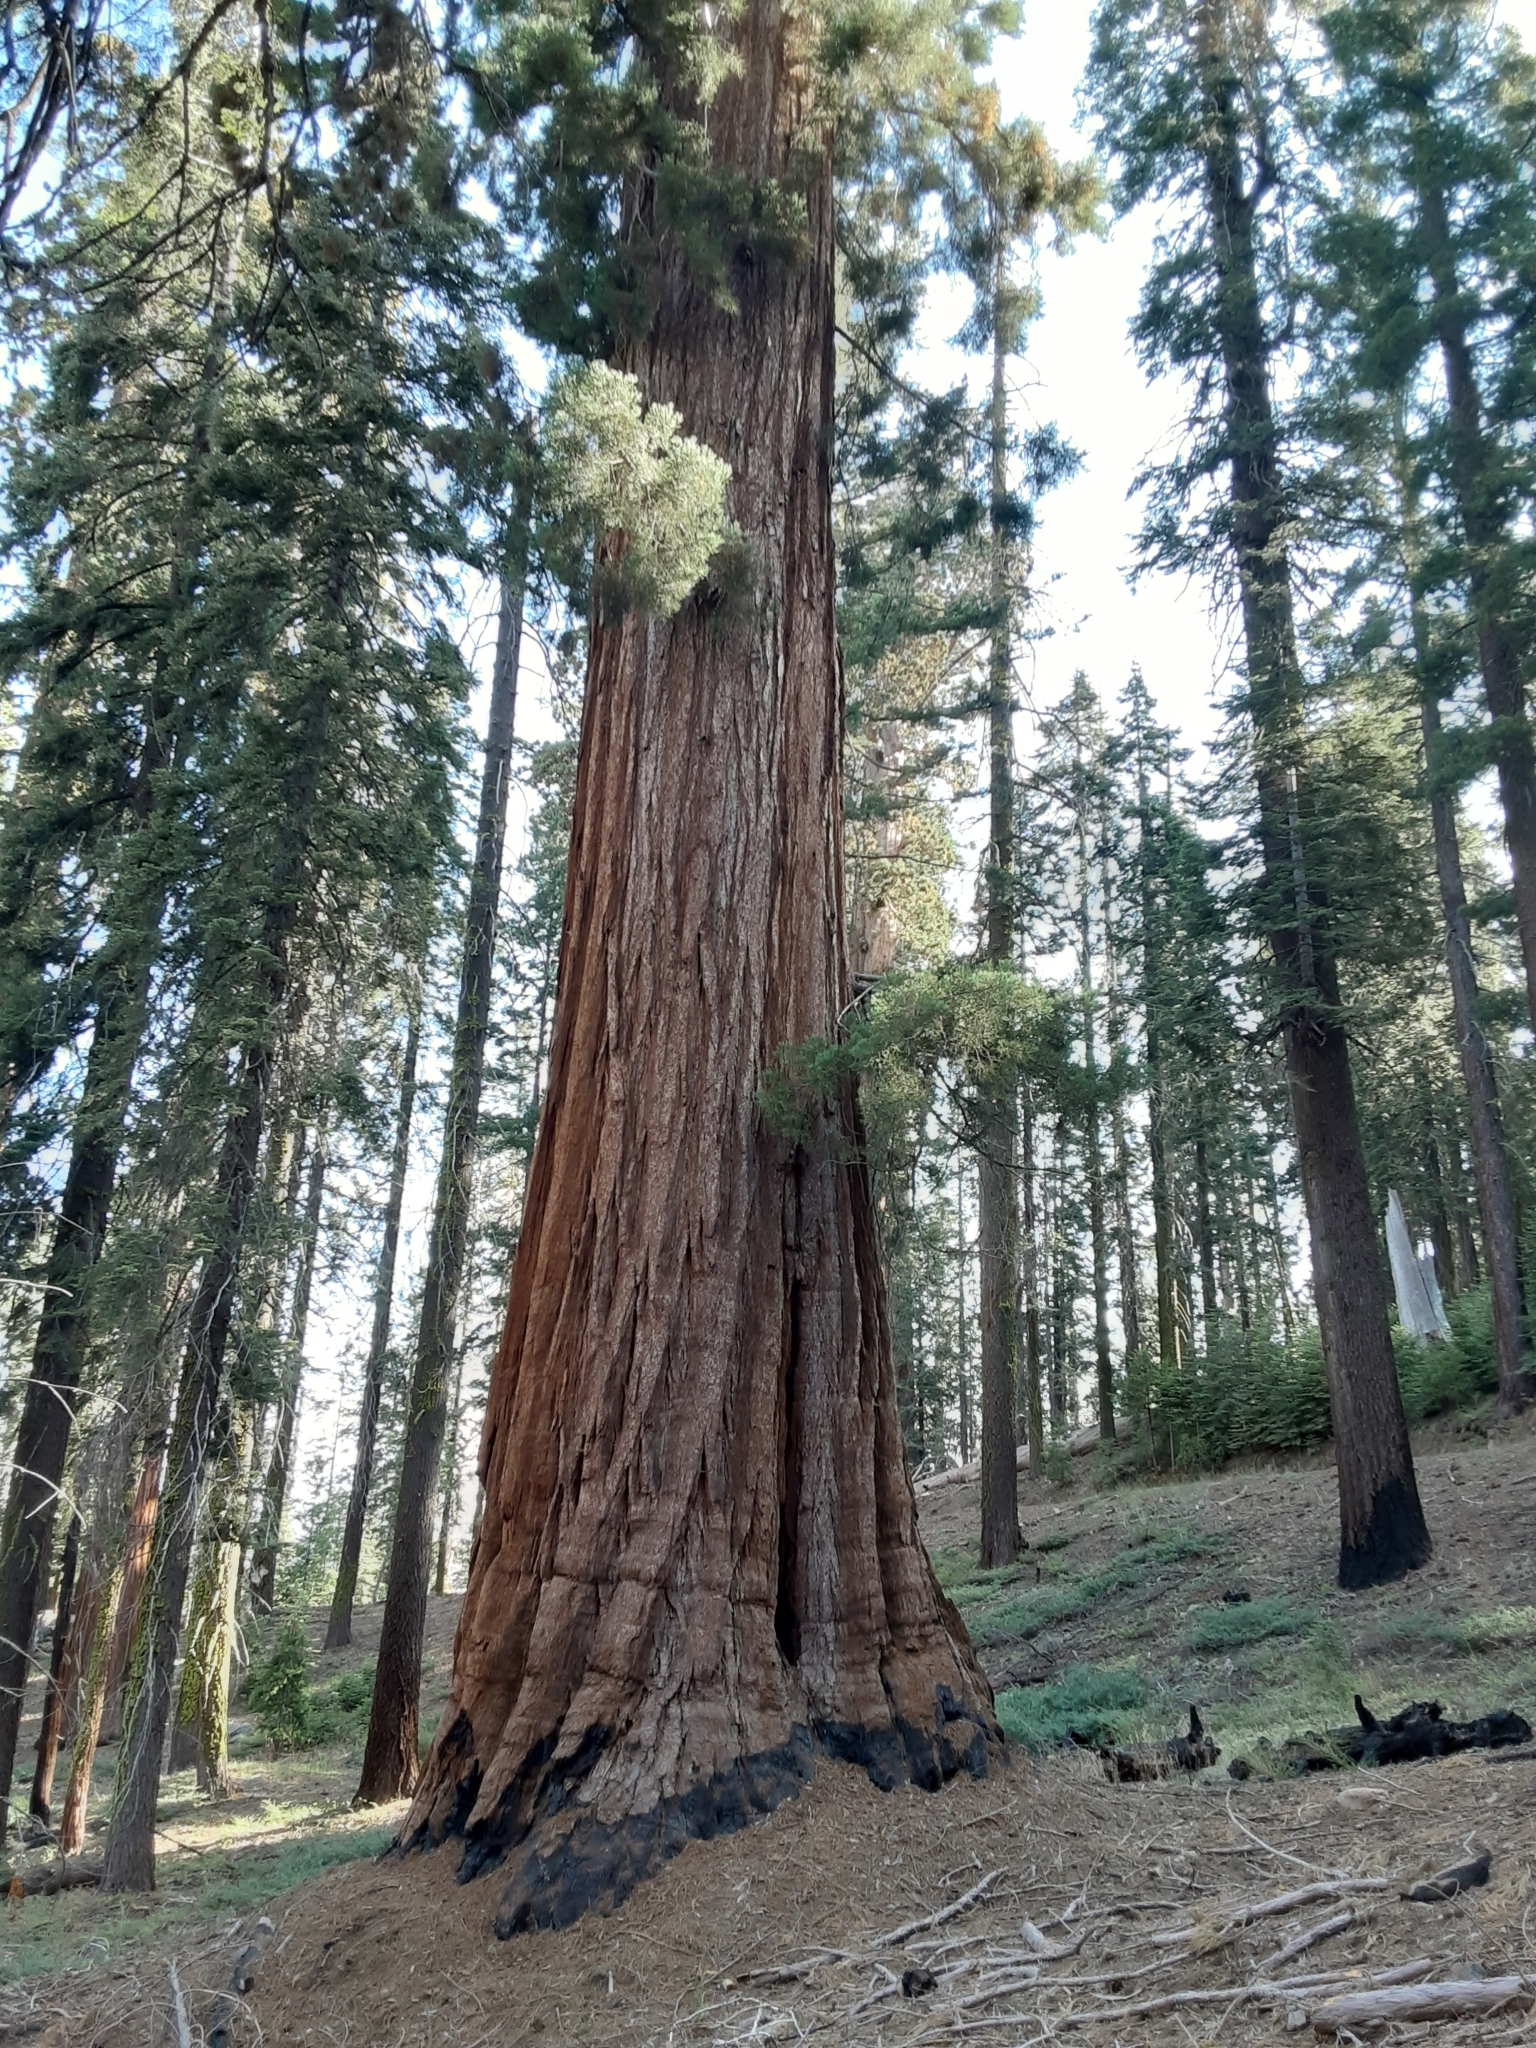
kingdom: Plantae
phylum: Tracheophyta
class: Pinopsida
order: Pinales
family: Cupressaceae
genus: Sequoiadendron
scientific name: Sequoiadendron giganteum
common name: Wellingtonia
